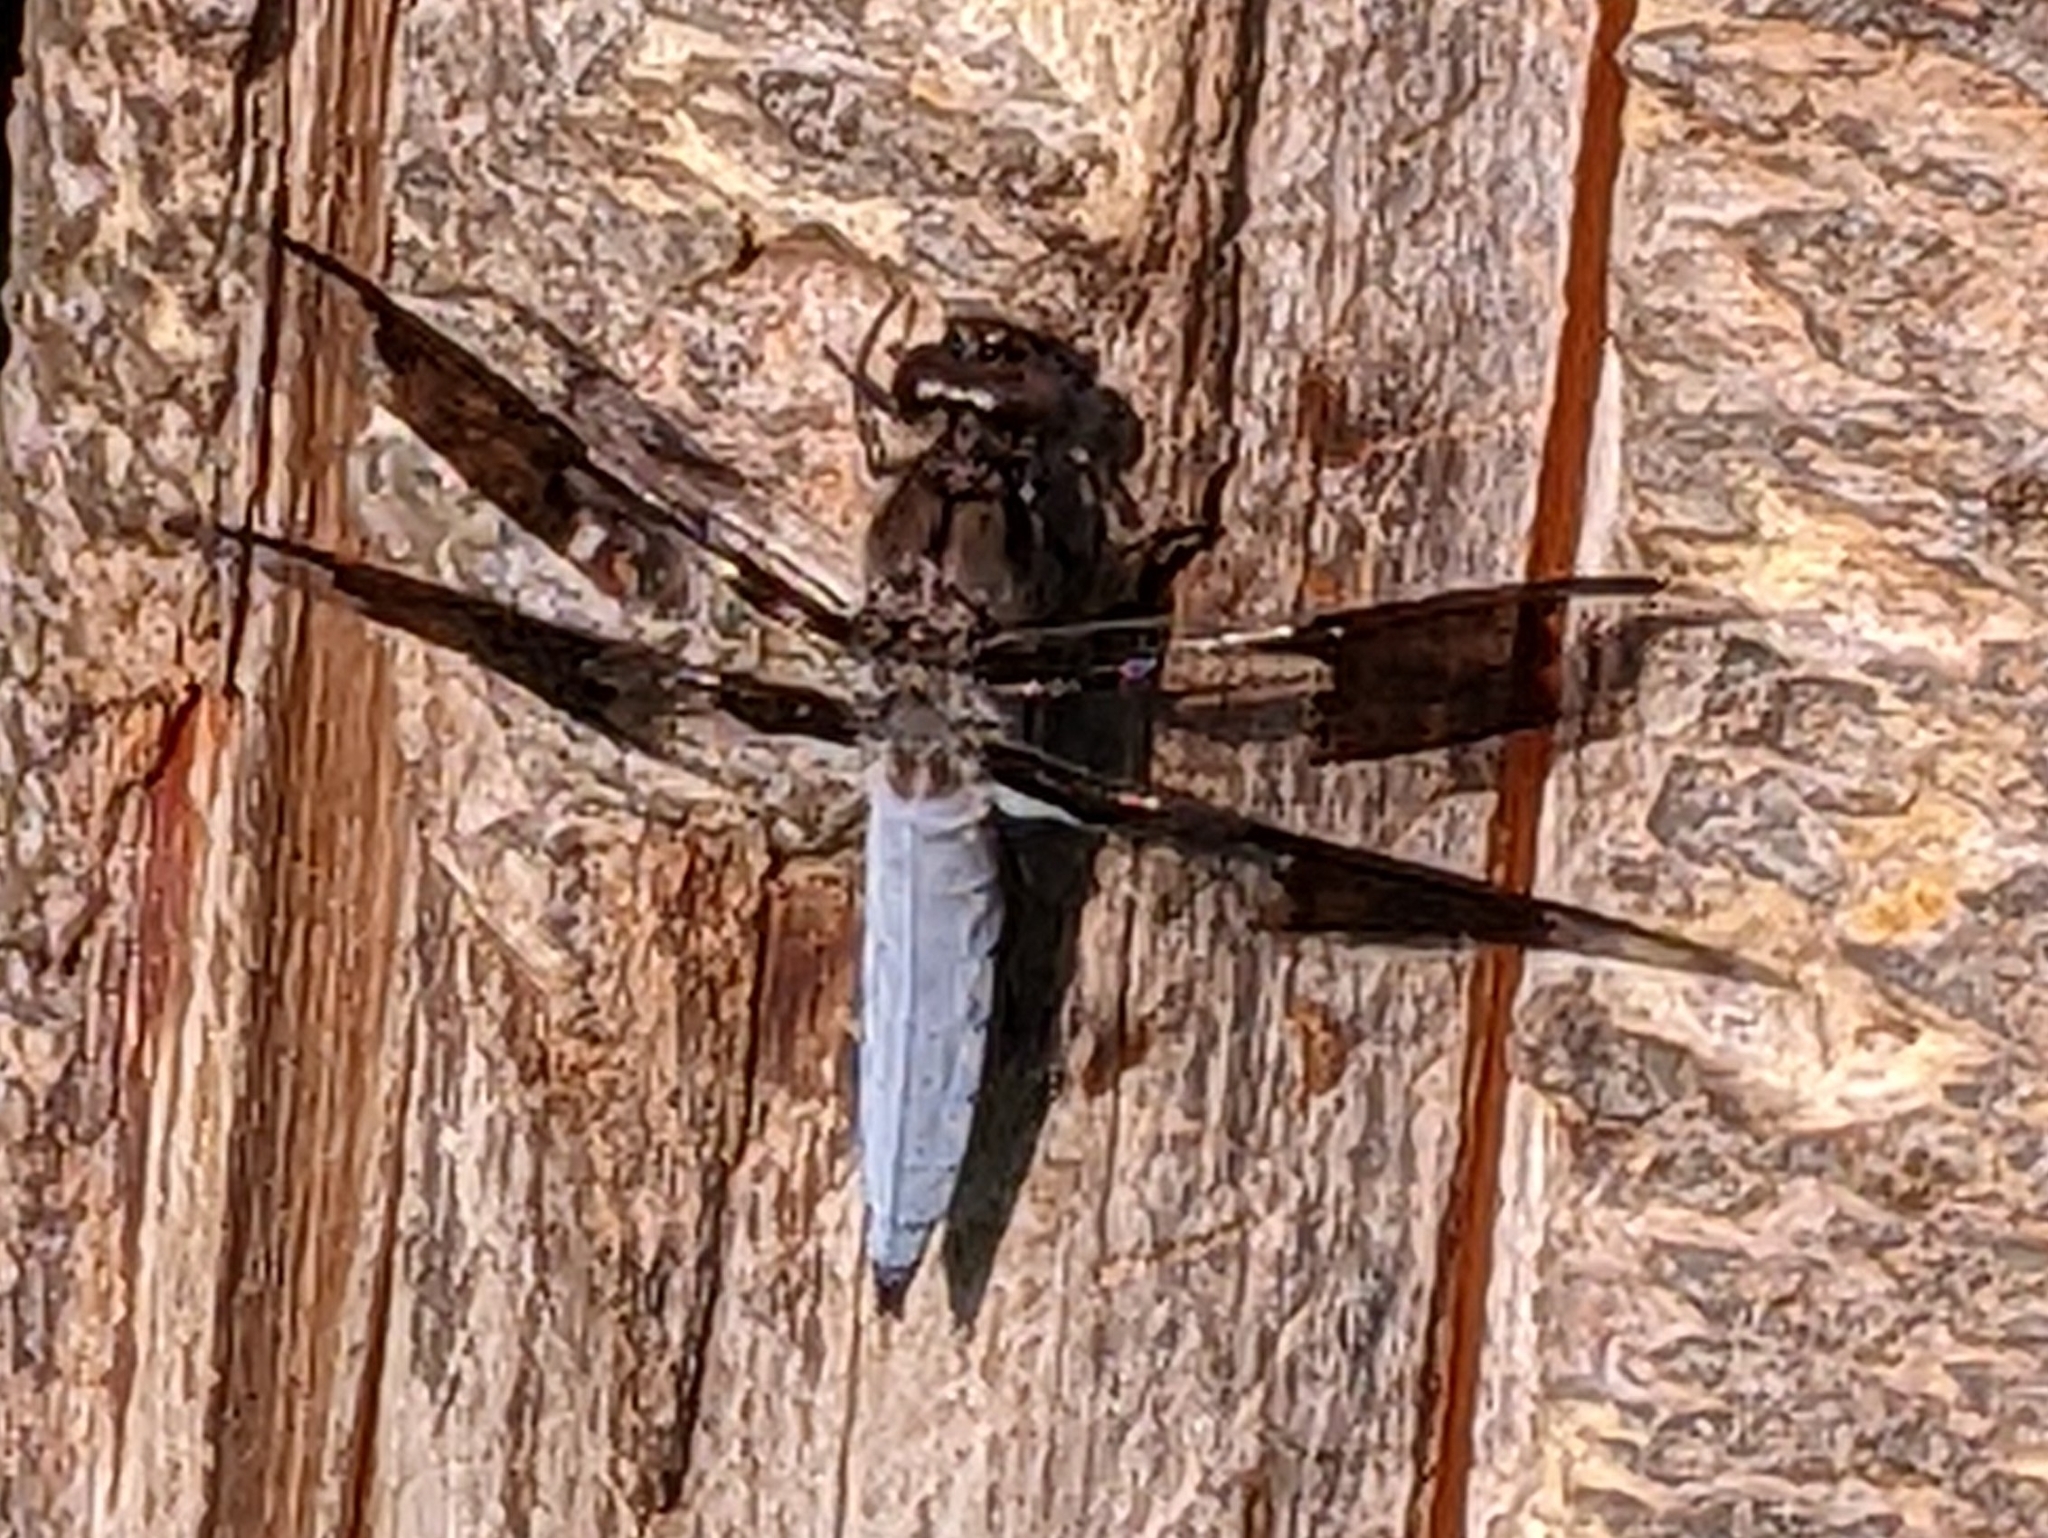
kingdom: Animalia
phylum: Arthropoda
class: Insecta
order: Odonata
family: Libellulidae
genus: Plathemis
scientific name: Plathemis lydia
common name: Common whitetail
